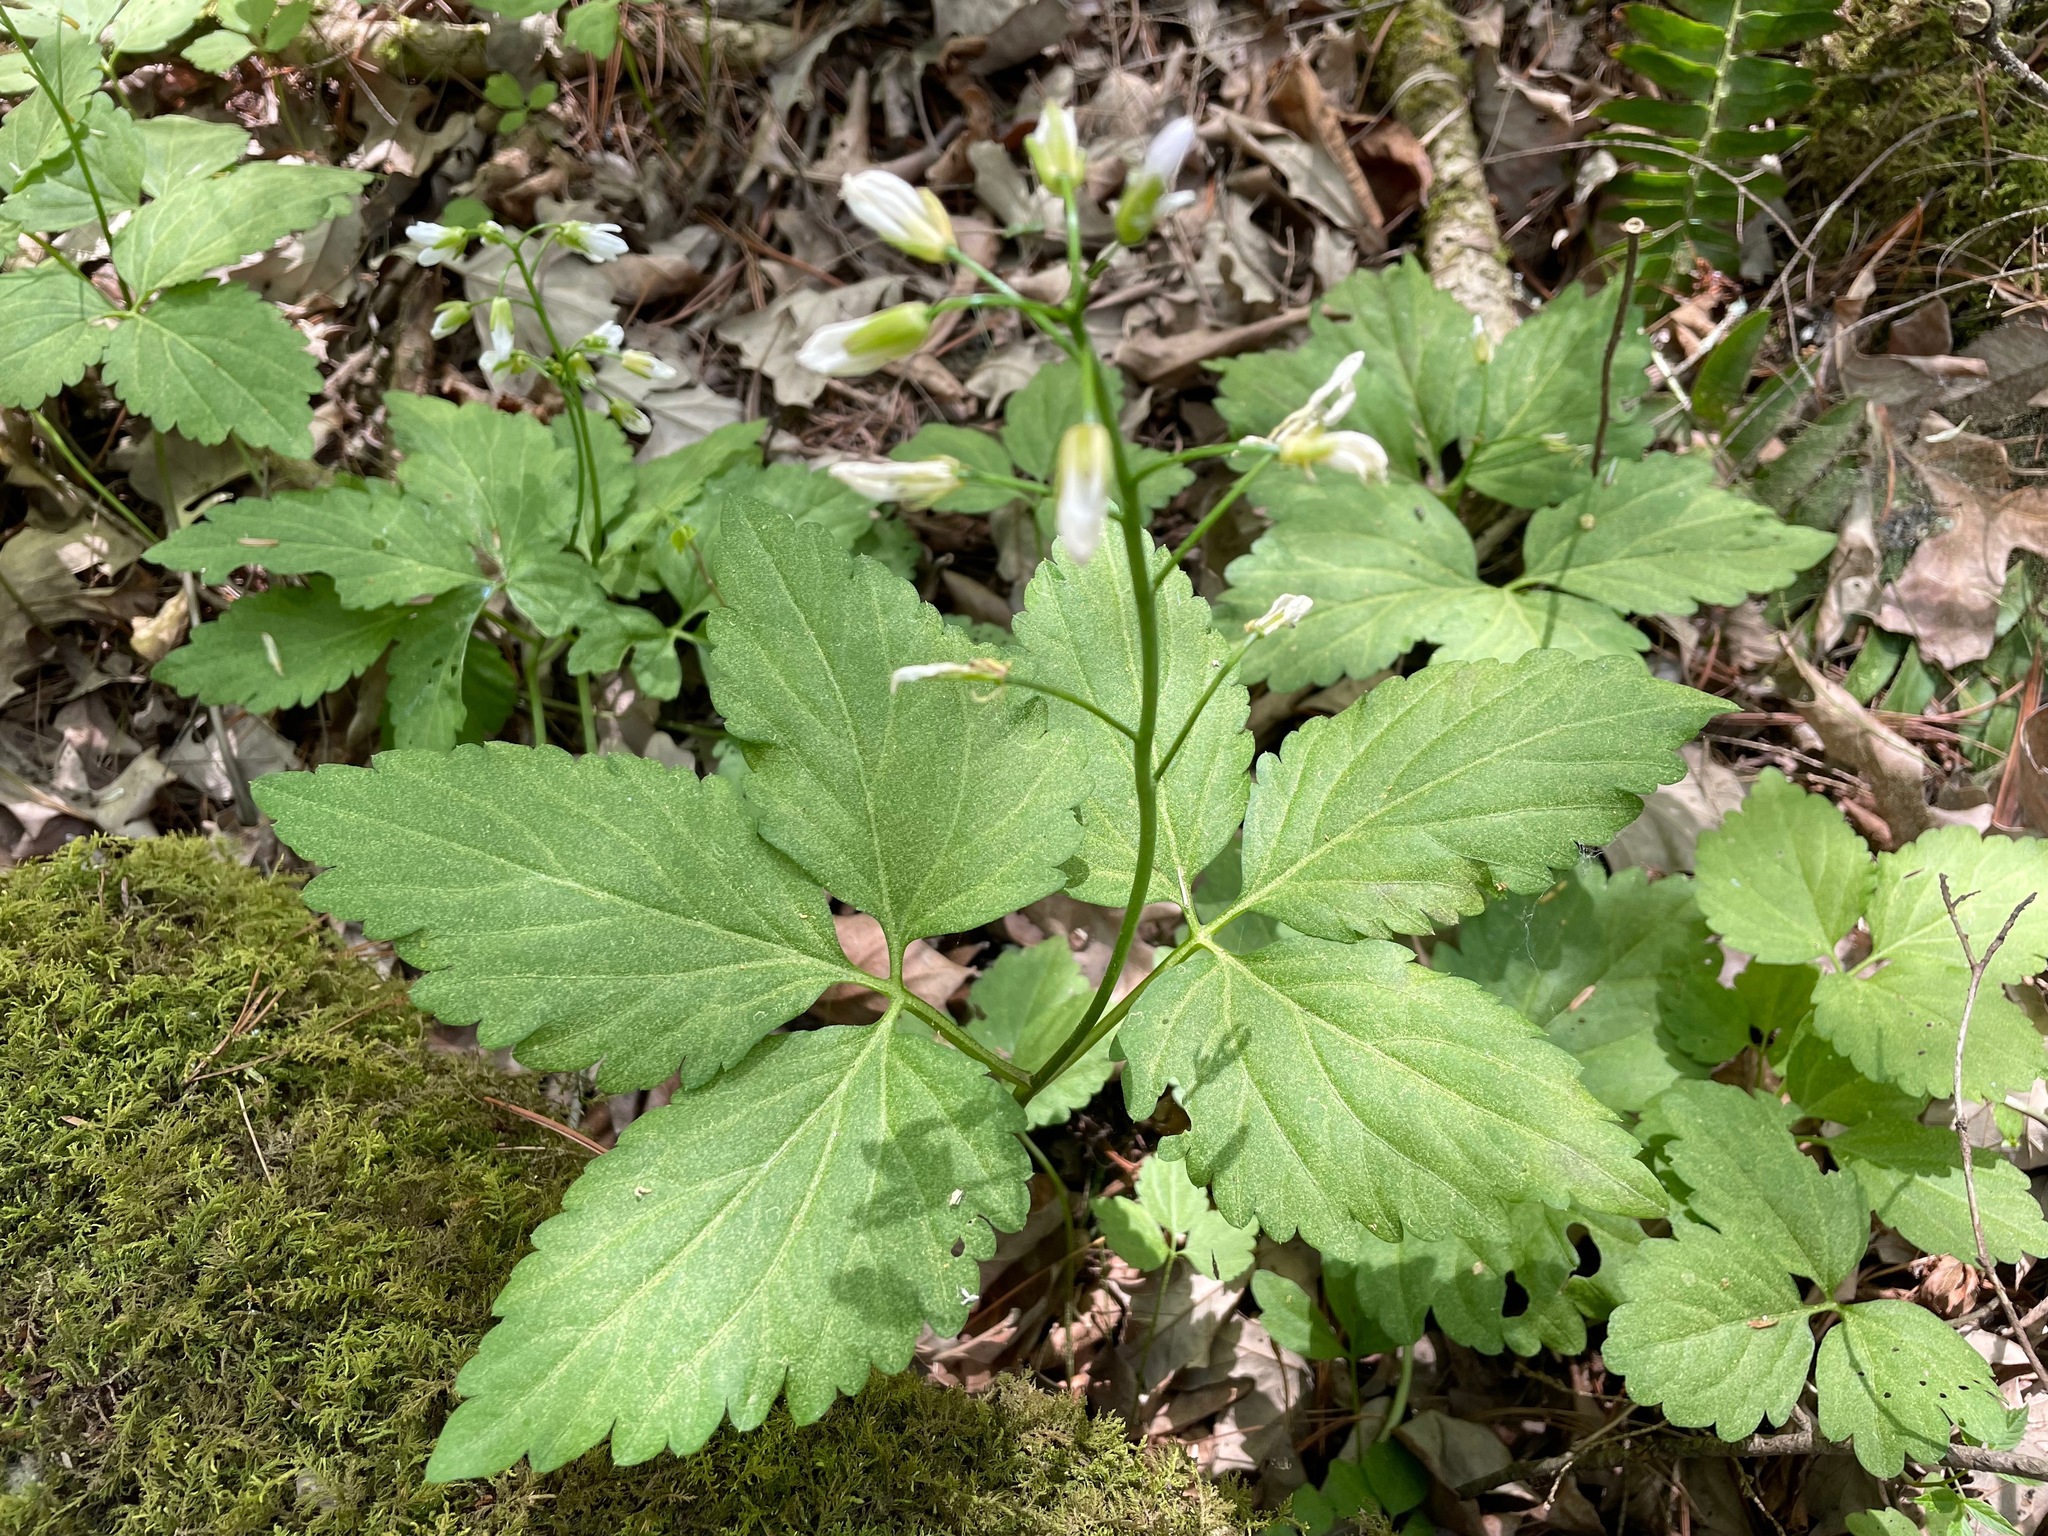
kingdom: Plantae
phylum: Tracheophyta
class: Magnoliopsida
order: Brassicales
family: Brassicaceae
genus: Cardamine
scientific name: Cardamine diphylla
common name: Broad-leaved toothwort
